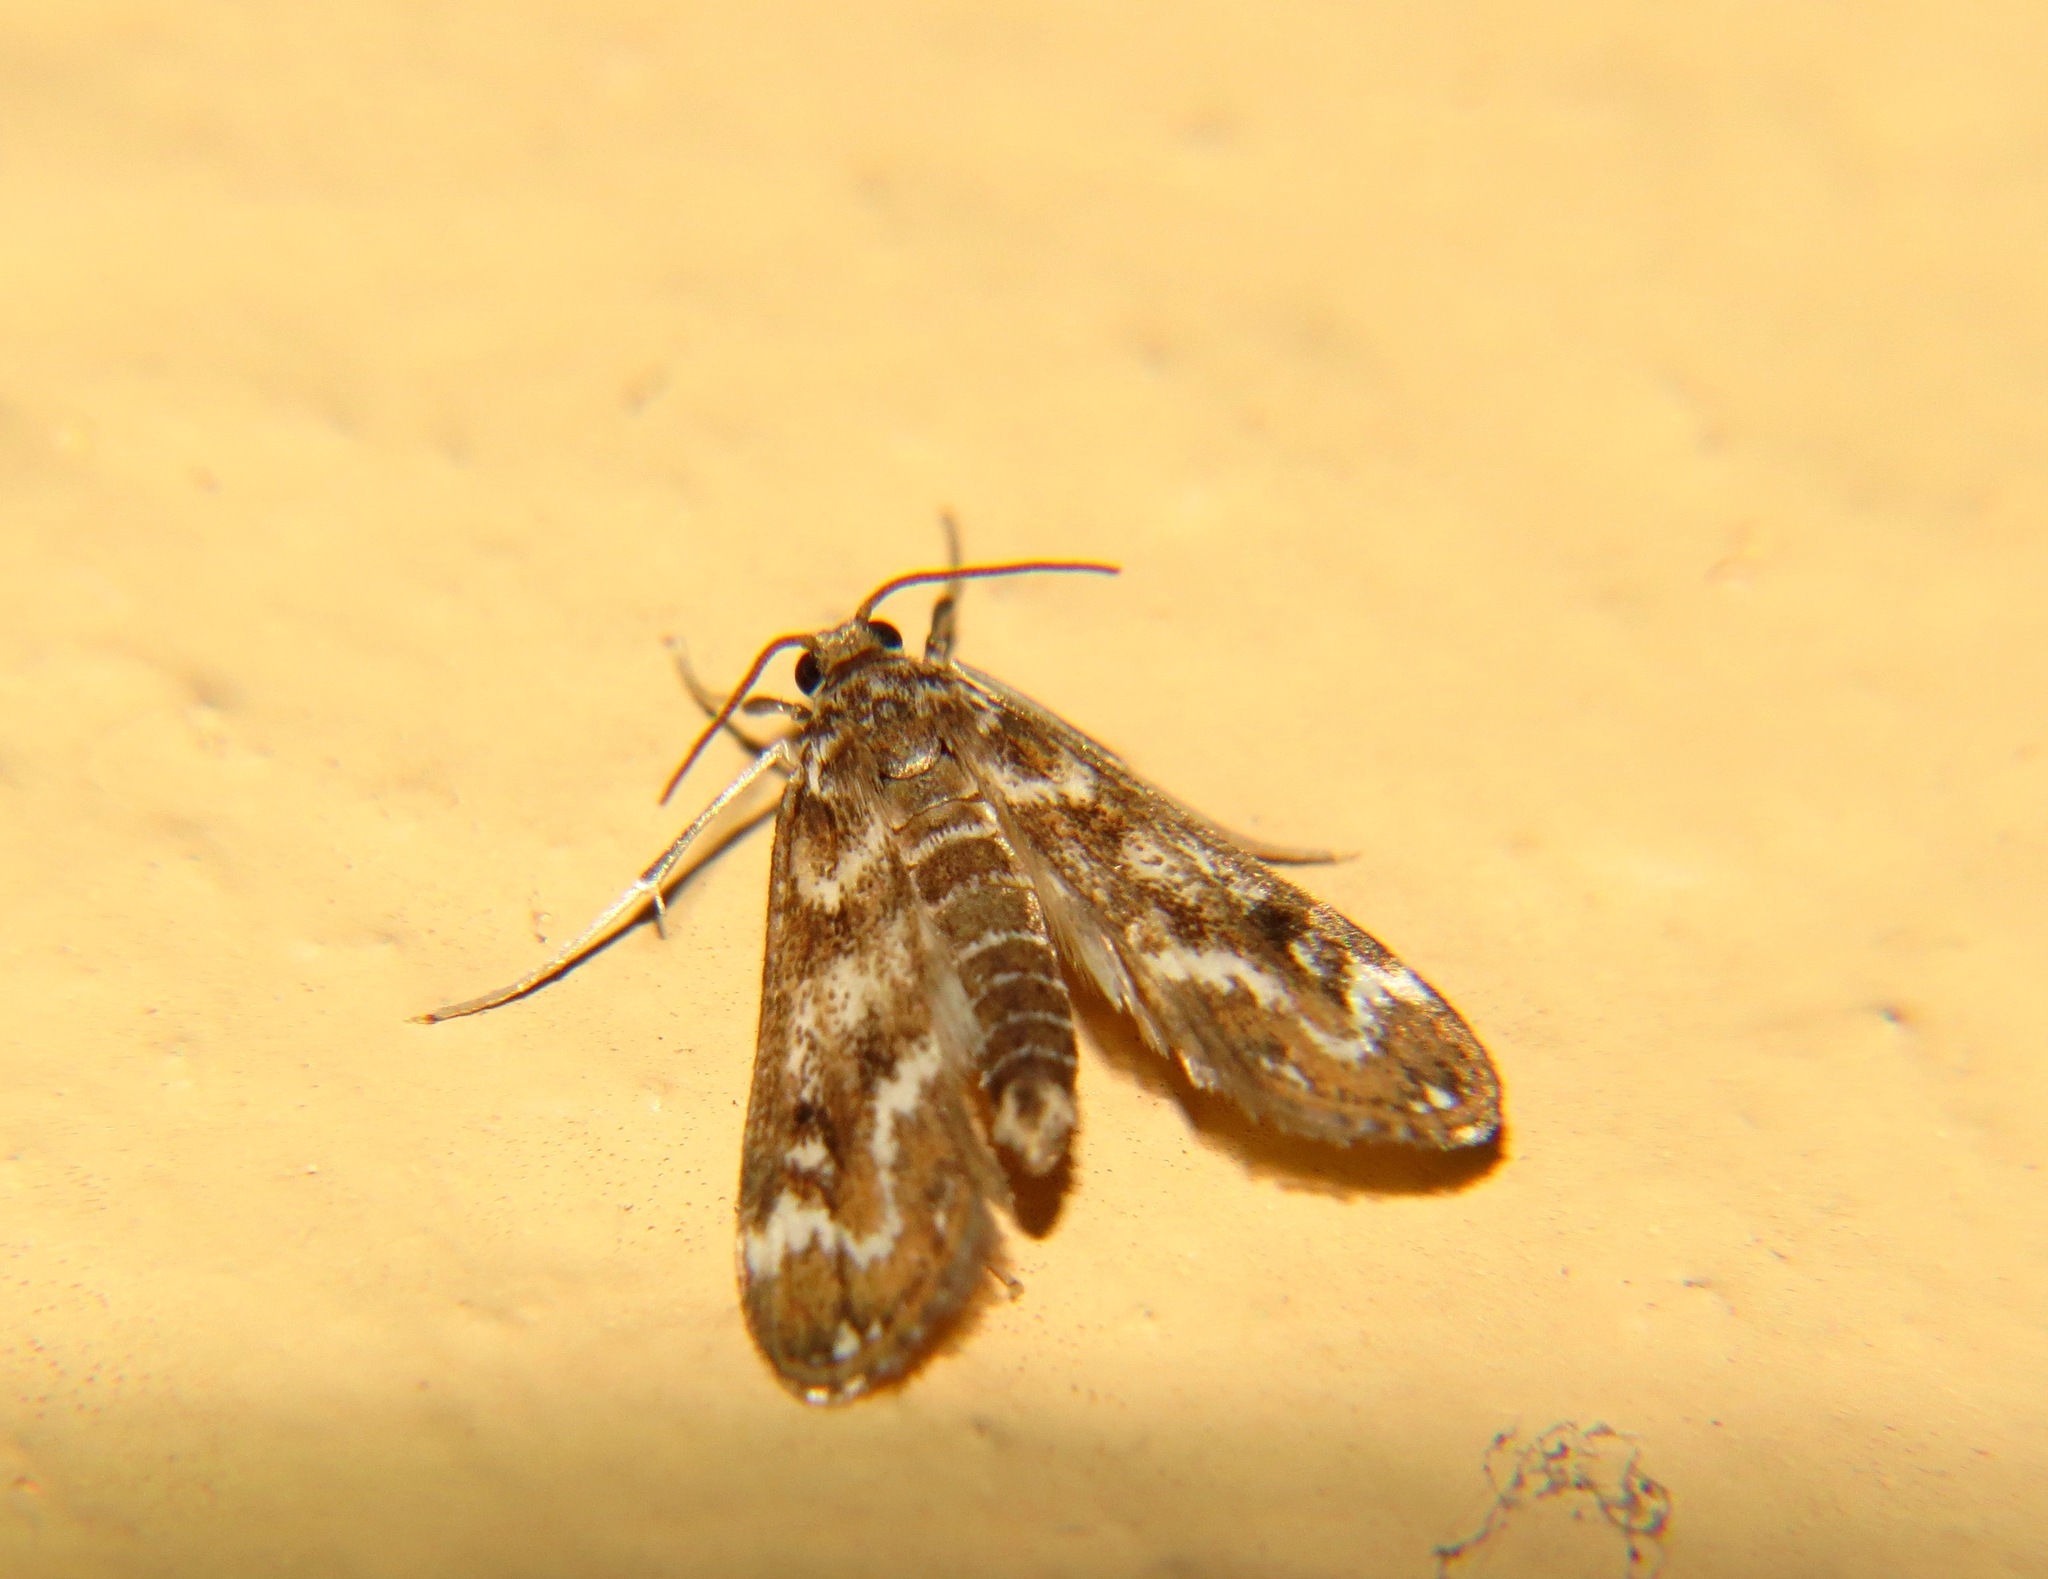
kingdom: Animalia
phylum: Arthropoda
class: Insecta
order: Lepidoptera
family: Crambidae
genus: Hygraula
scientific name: Hygraula nitens
